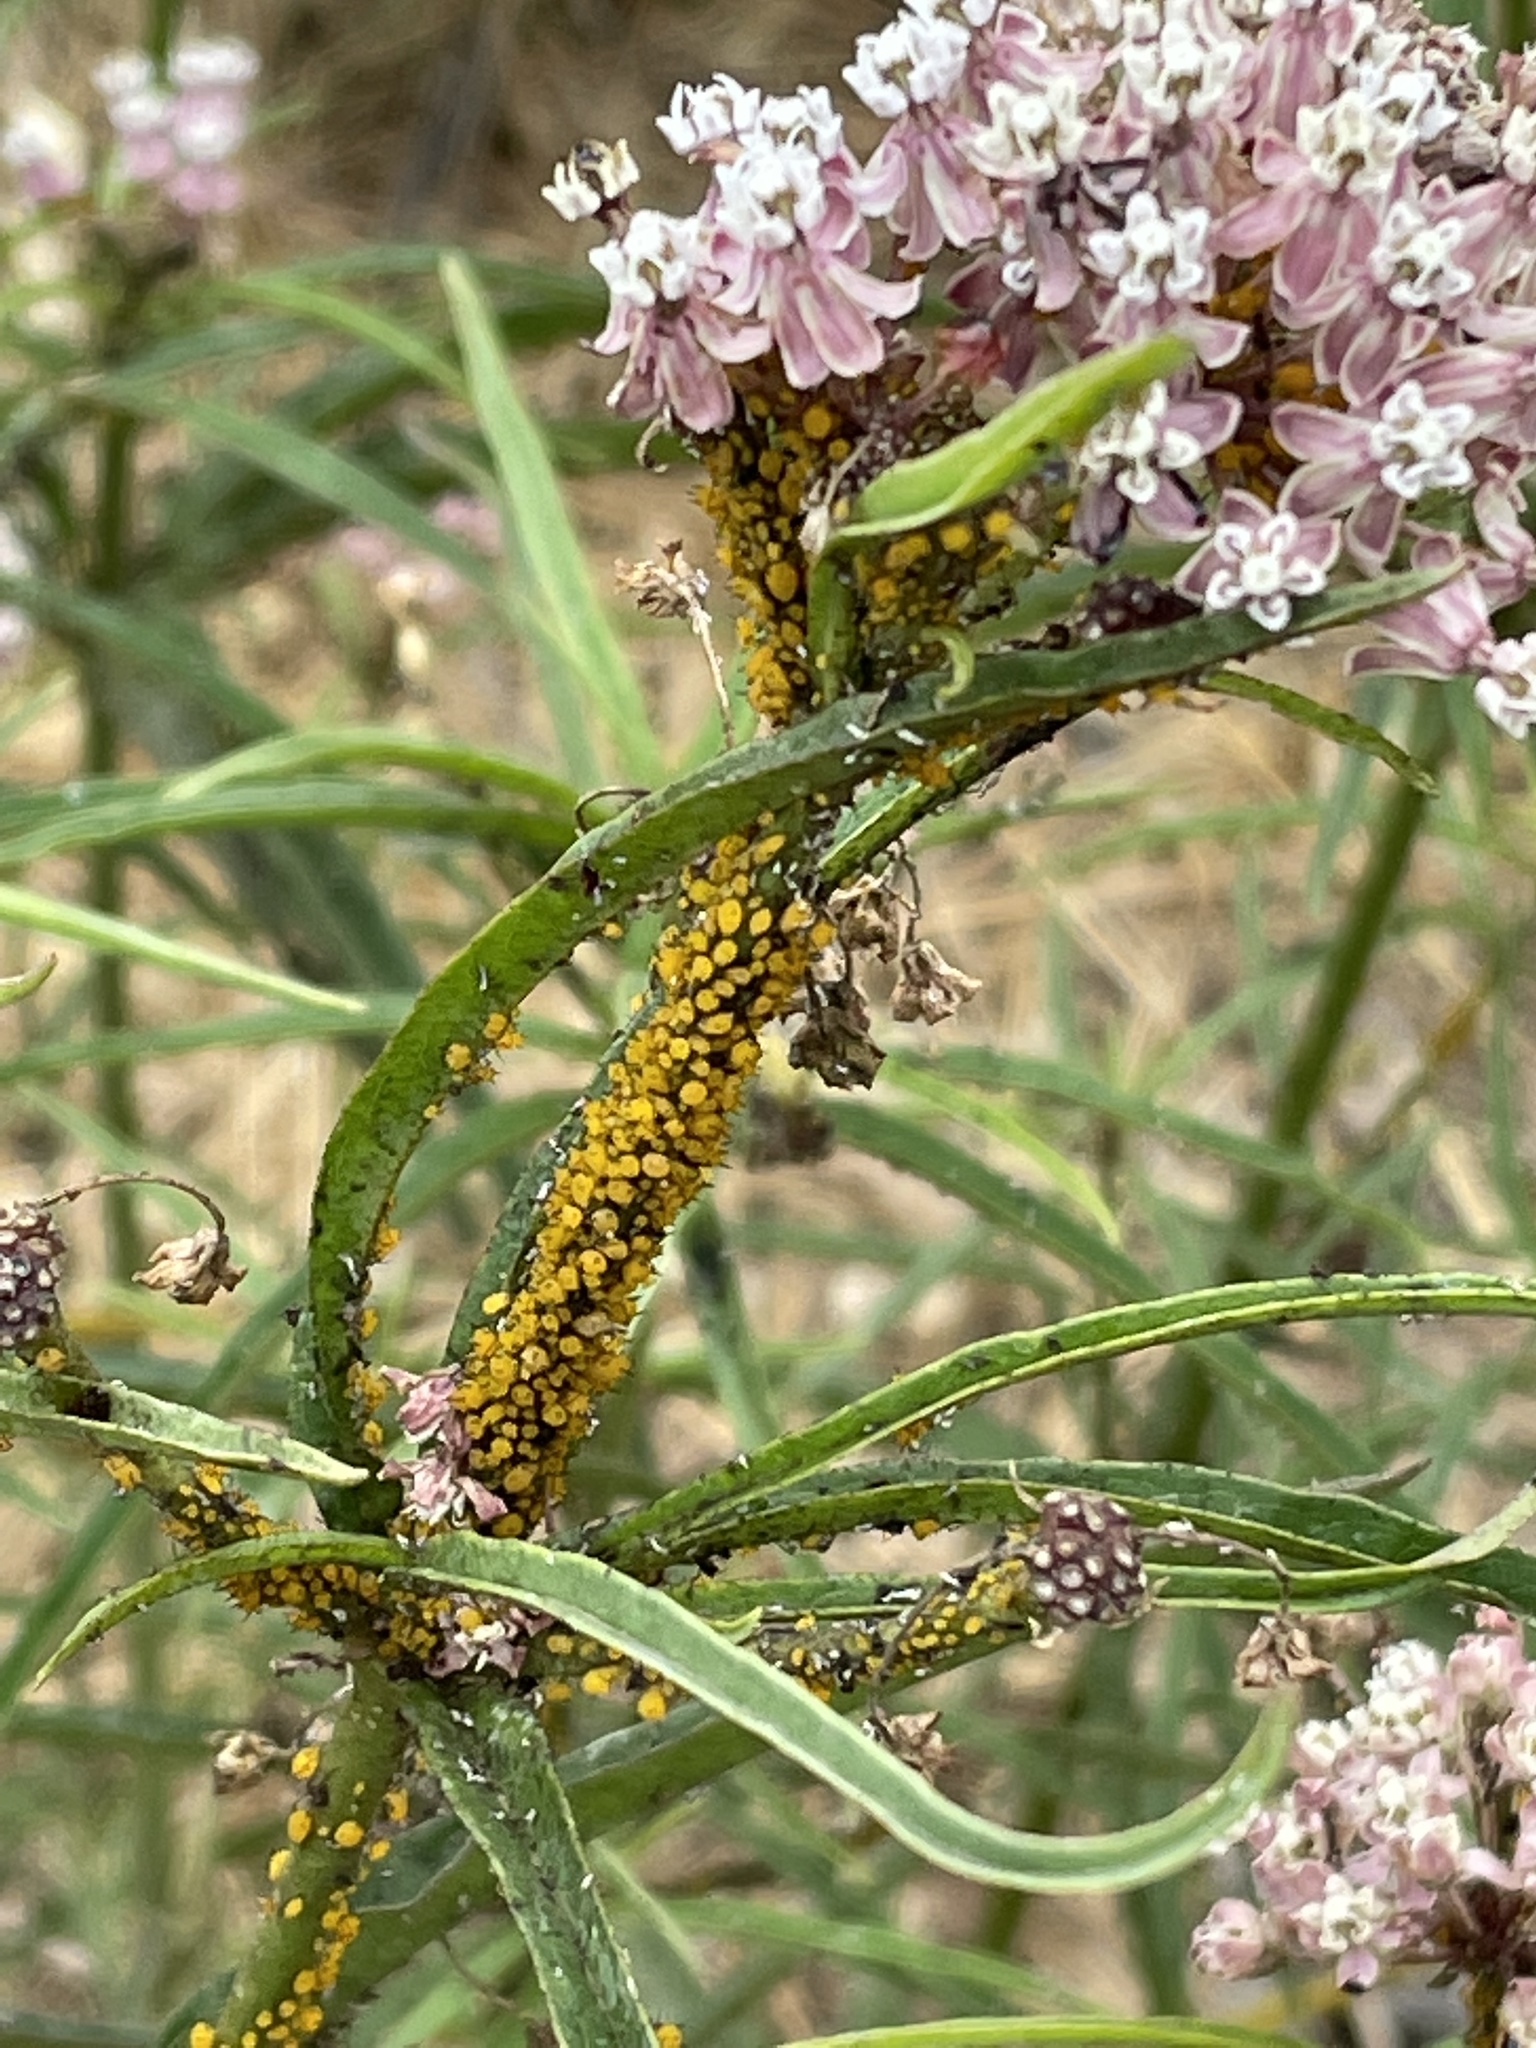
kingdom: Animalia
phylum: Arthropoda
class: Insecta
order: Hemiptera
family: Aphididae
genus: Aphis
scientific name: Aphis nerii
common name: Oleander aphid
